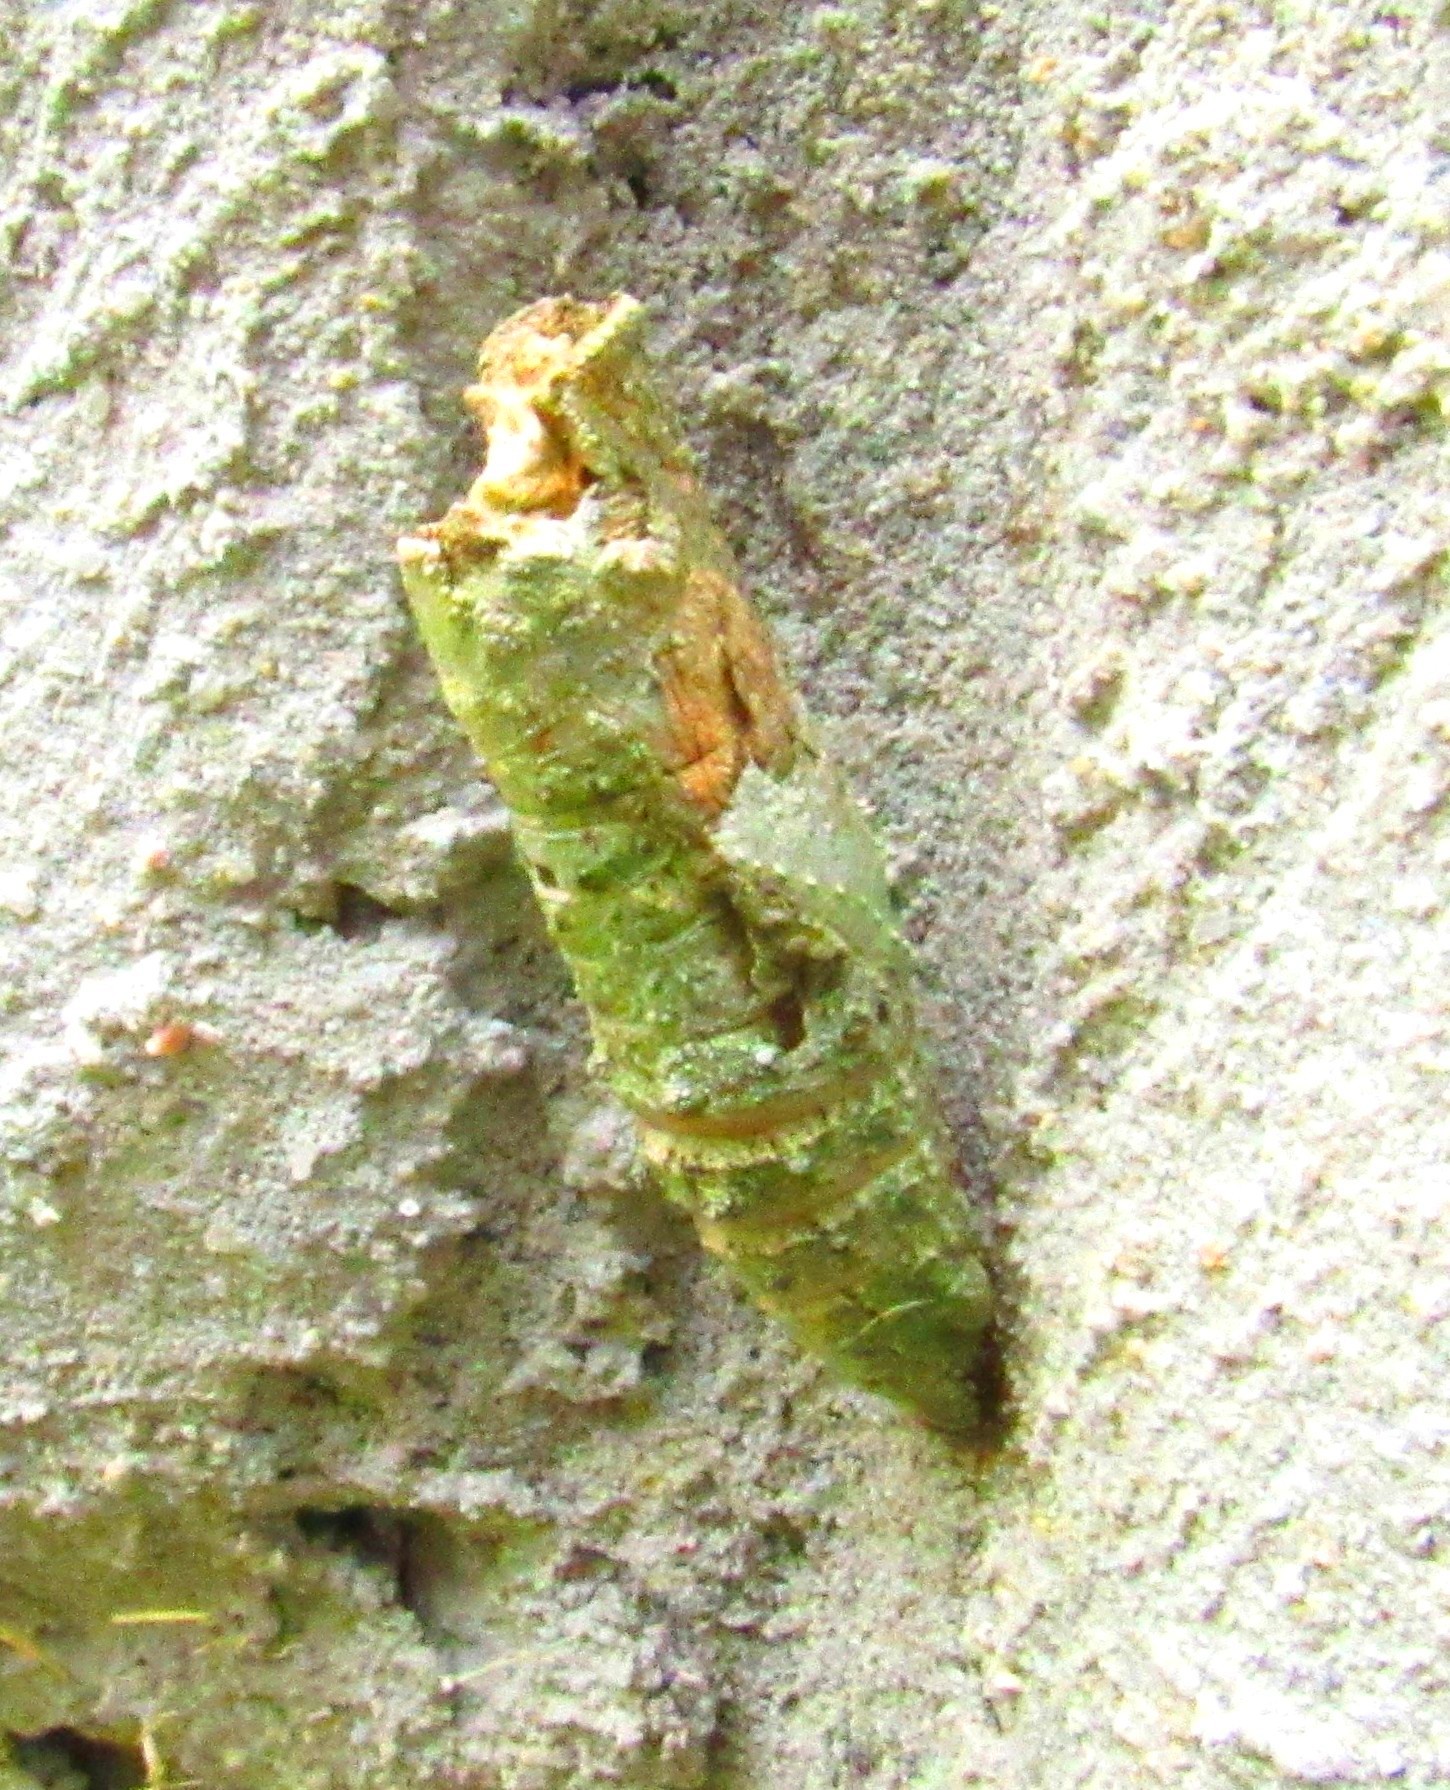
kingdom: Animalia
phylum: Arthropoda
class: Insecta
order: Lepidoptera
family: Papilionidae
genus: Papilio
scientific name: Papilio anchisiades
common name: Idaes swallowtail
